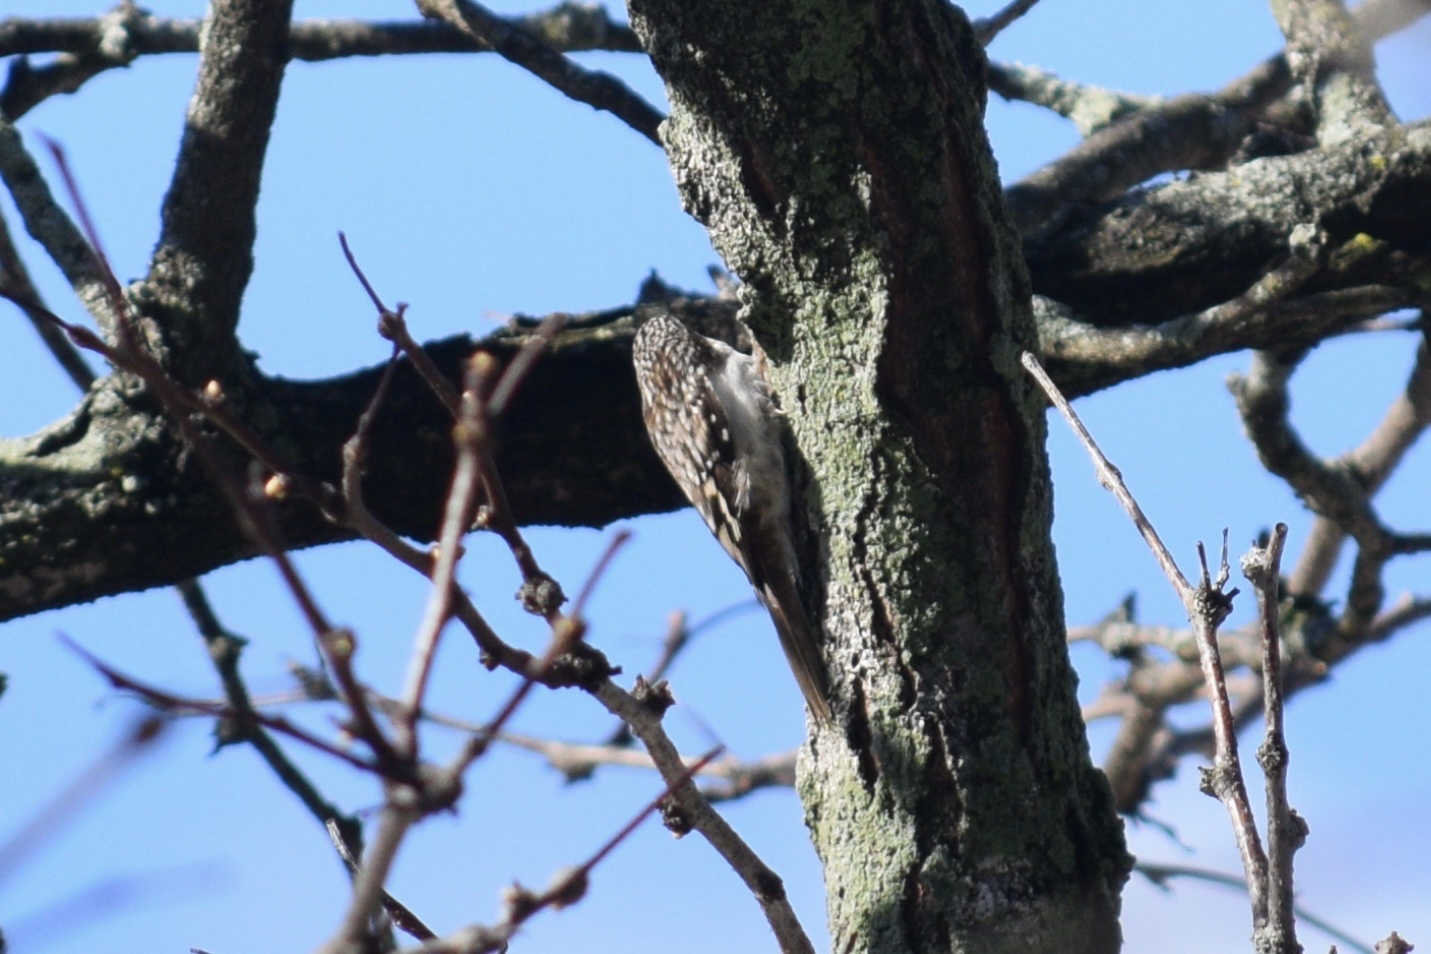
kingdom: Animalia
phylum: Chordata
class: Aves
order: Passeriformes
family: Certhiidae
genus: Certhia
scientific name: Certhia americana
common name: Brown creeper
